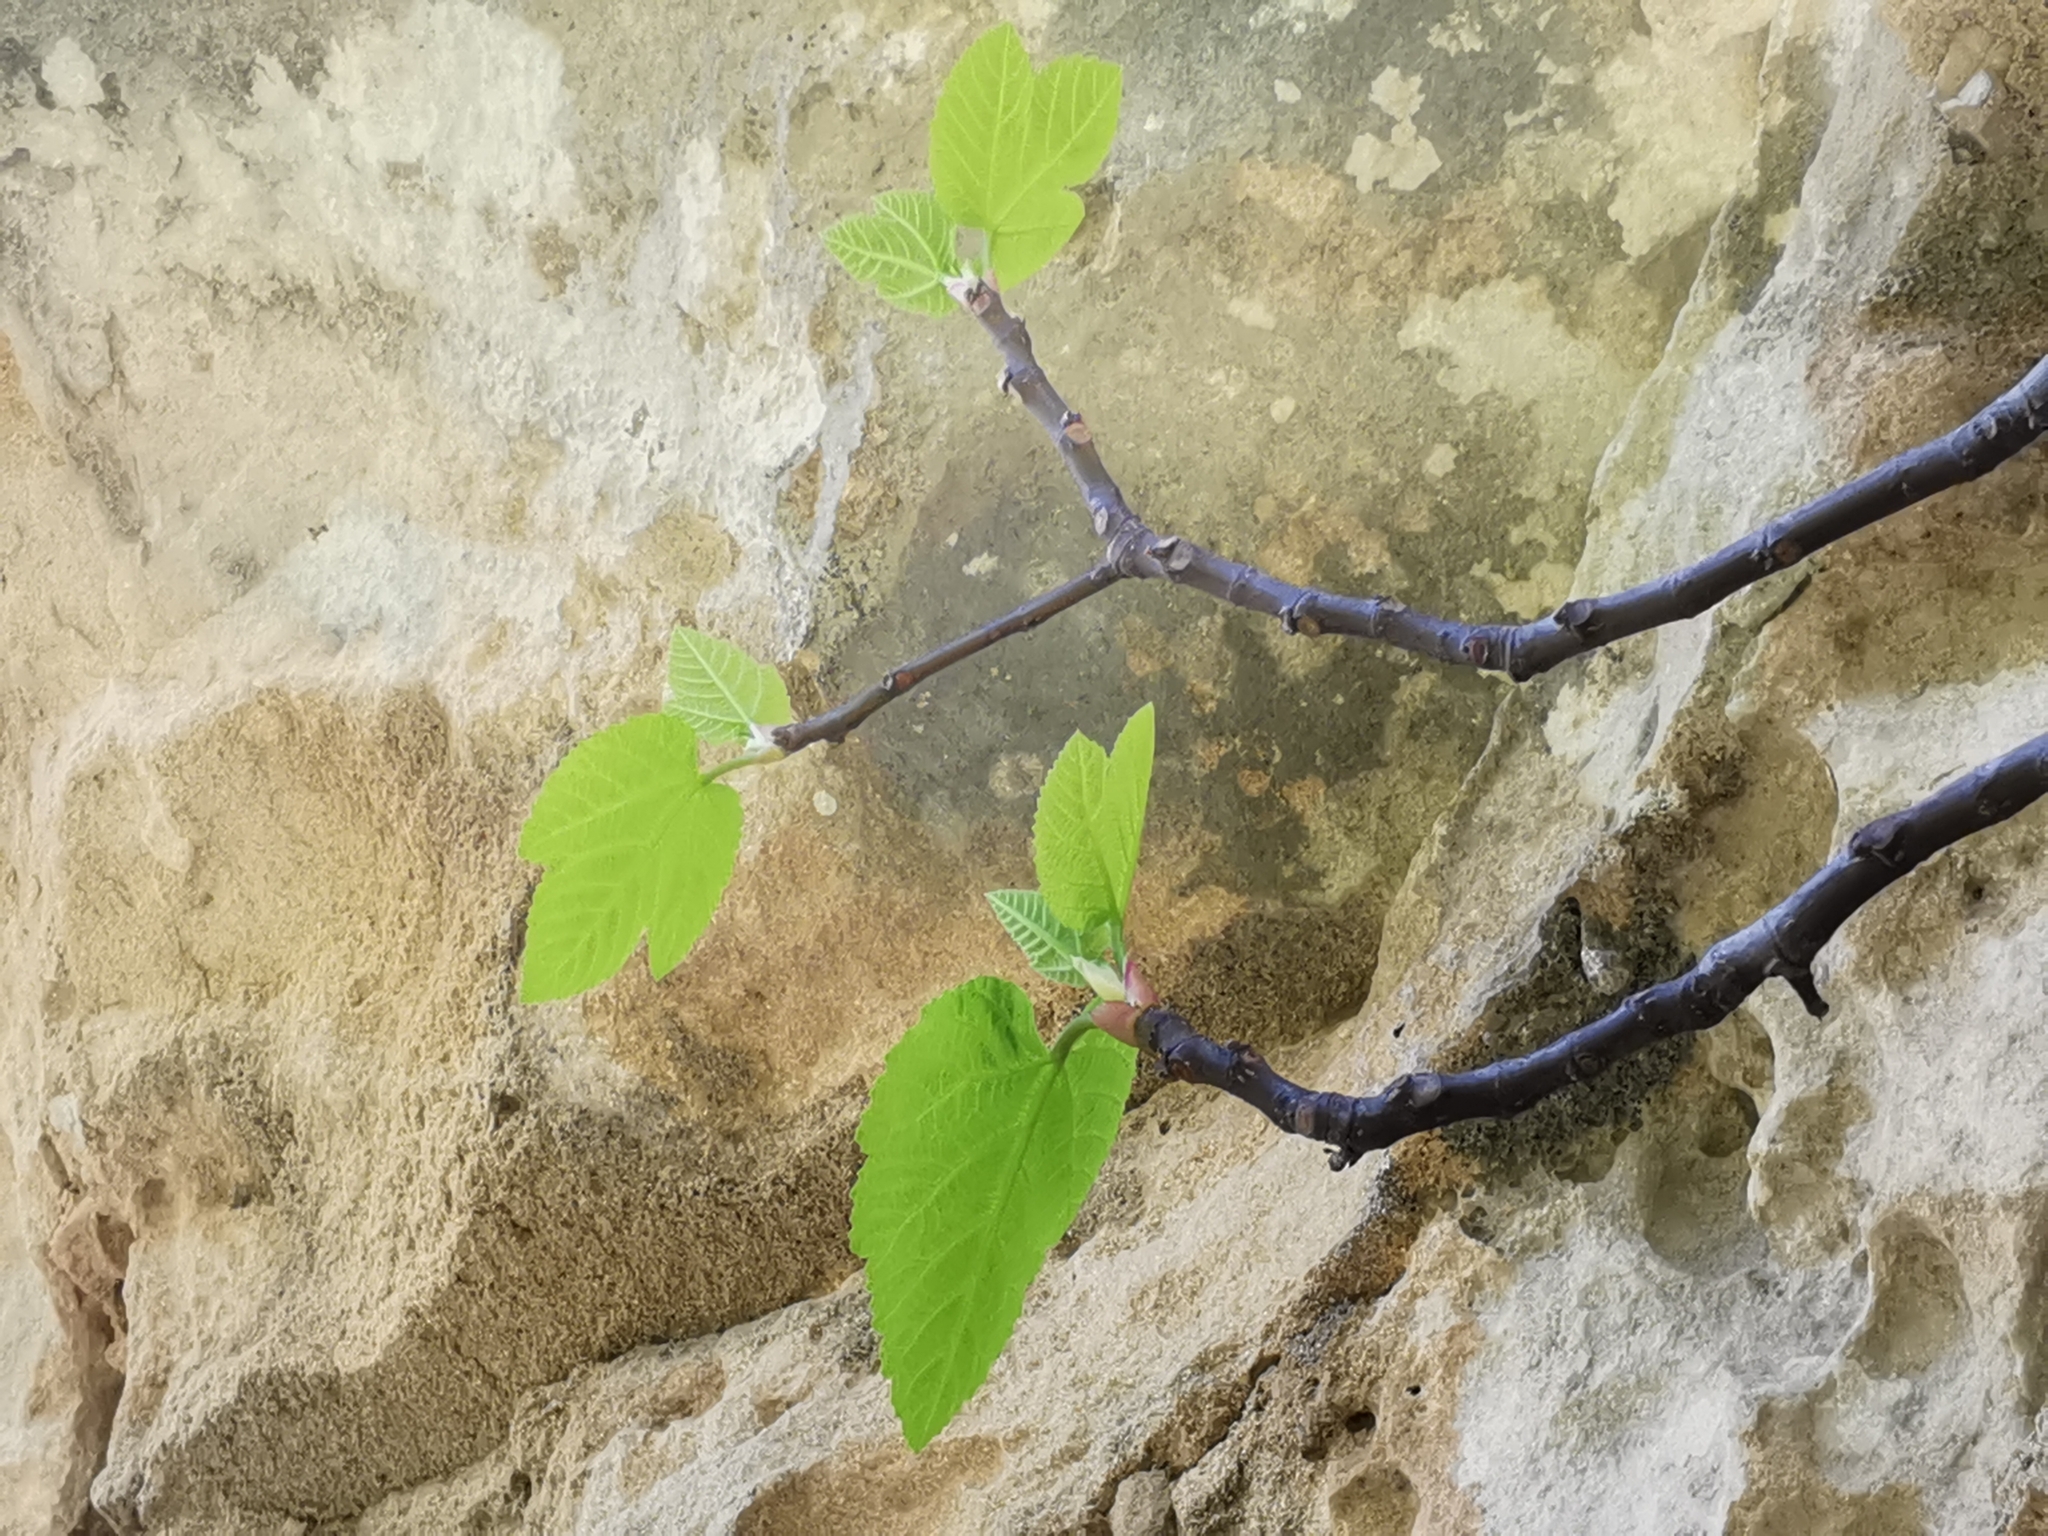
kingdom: Plantae
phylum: Tracheophyta
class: Magnoliopsida
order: Rosales
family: Moraceae
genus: Ficus
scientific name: Ficus carica
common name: Fig
